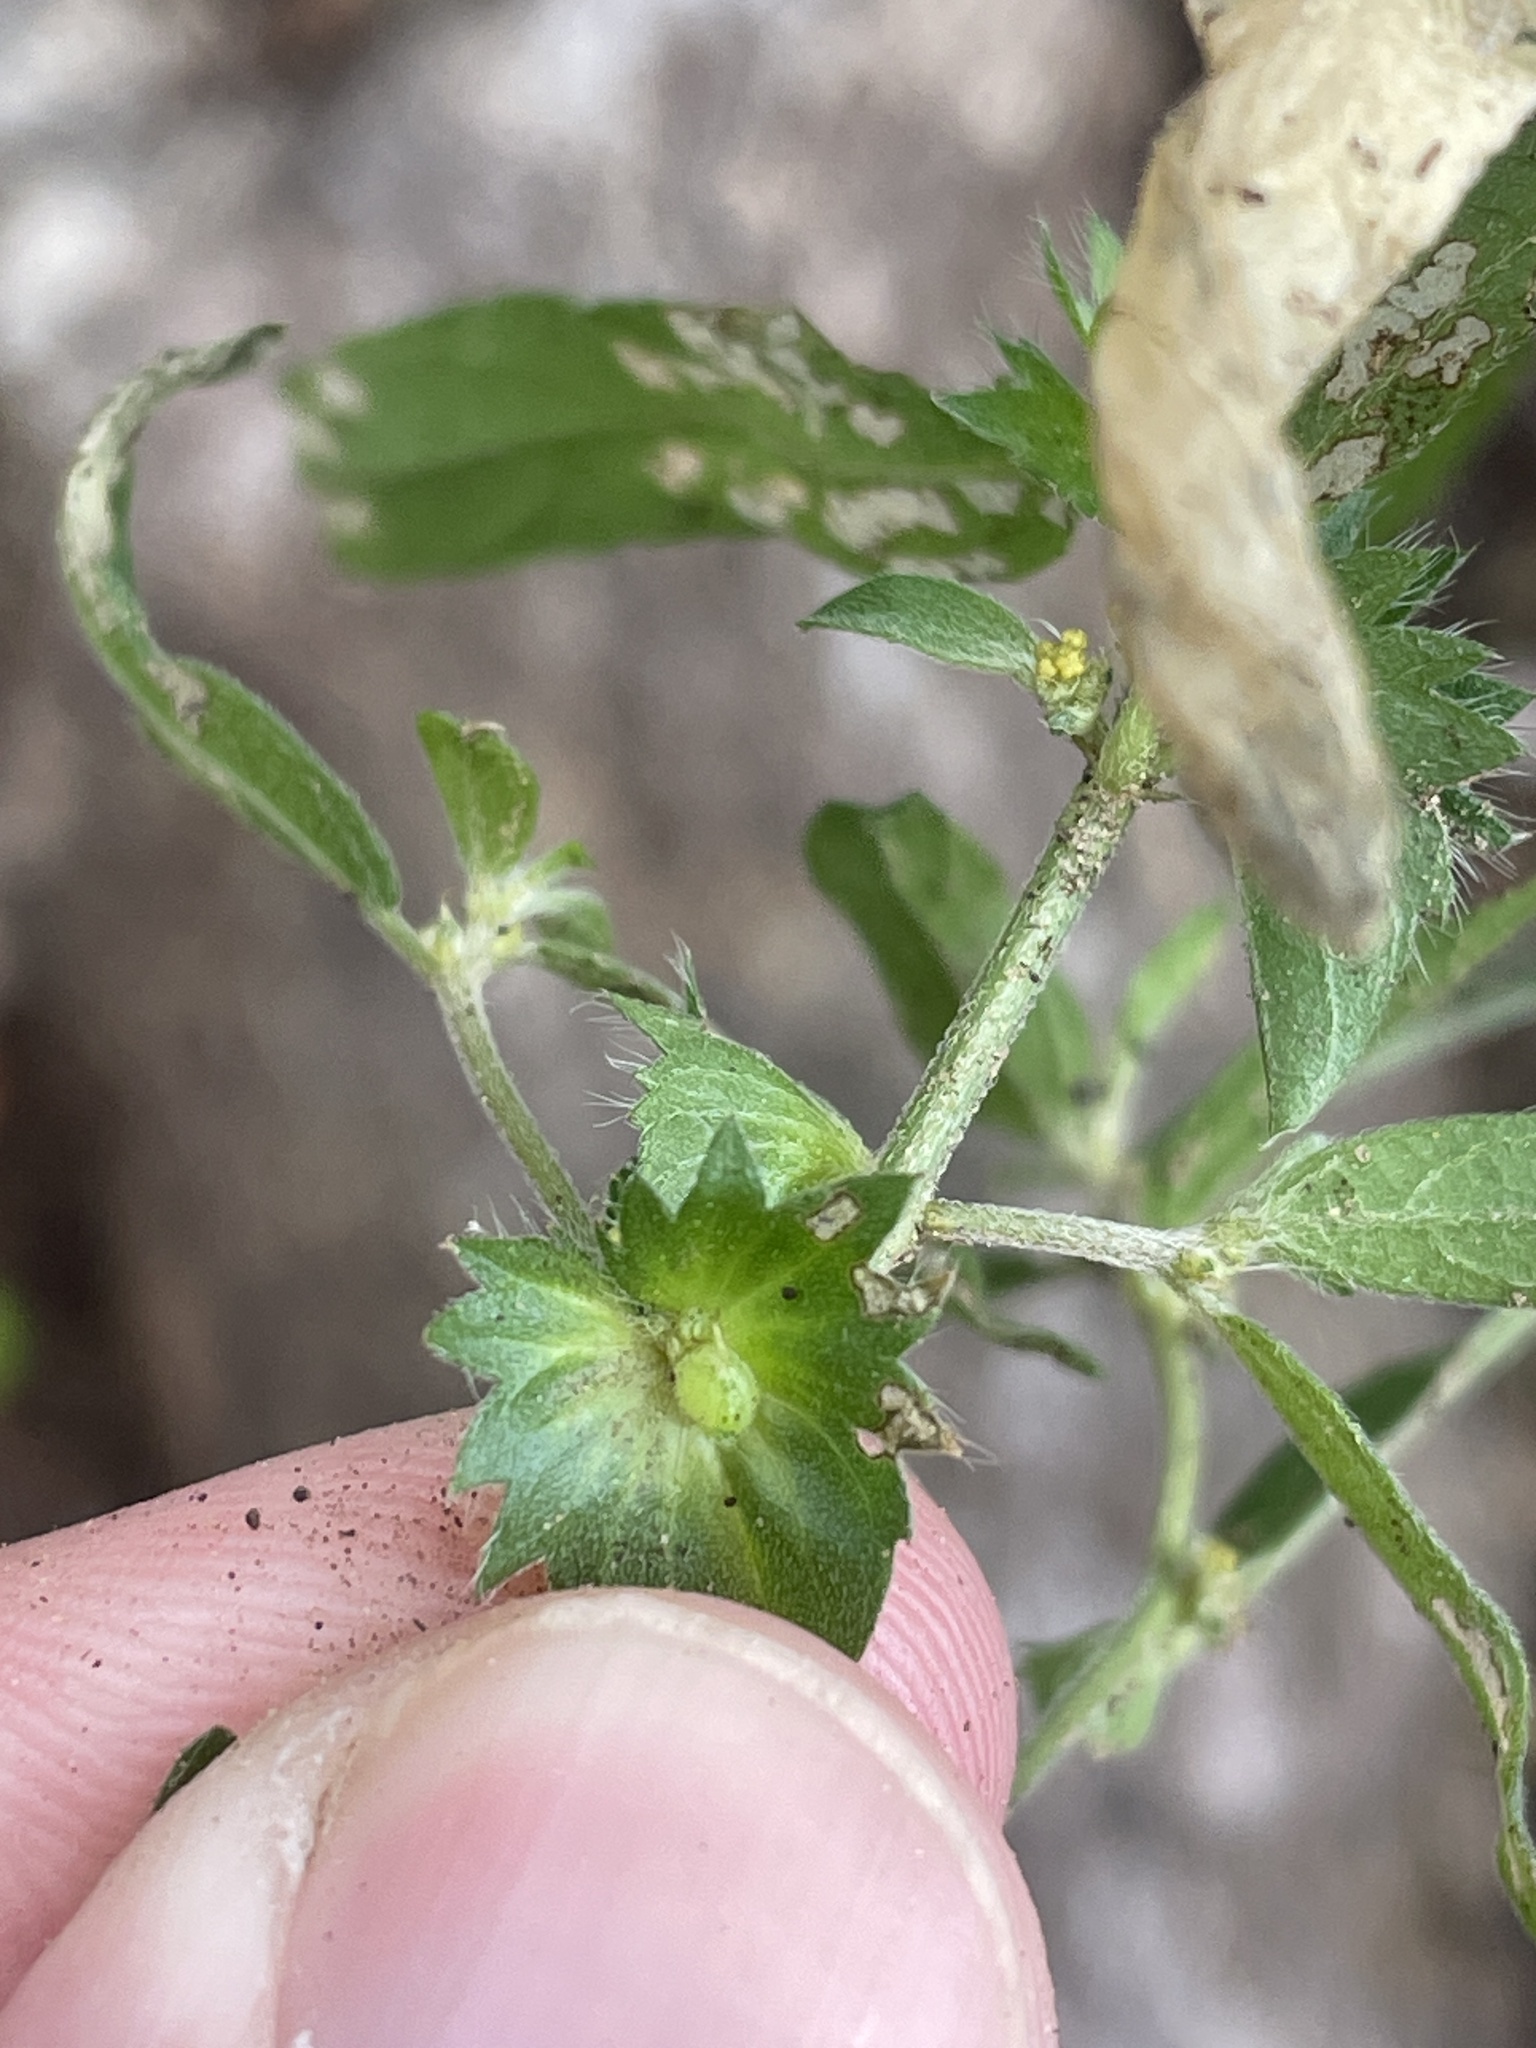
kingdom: Plantae
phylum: Tracheophyta
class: Magnoliopsida
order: Malpighiales
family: Euphorbiaceae
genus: Acalypha
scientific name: Acalypha gracilens
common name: Slender three-seeded mercury
